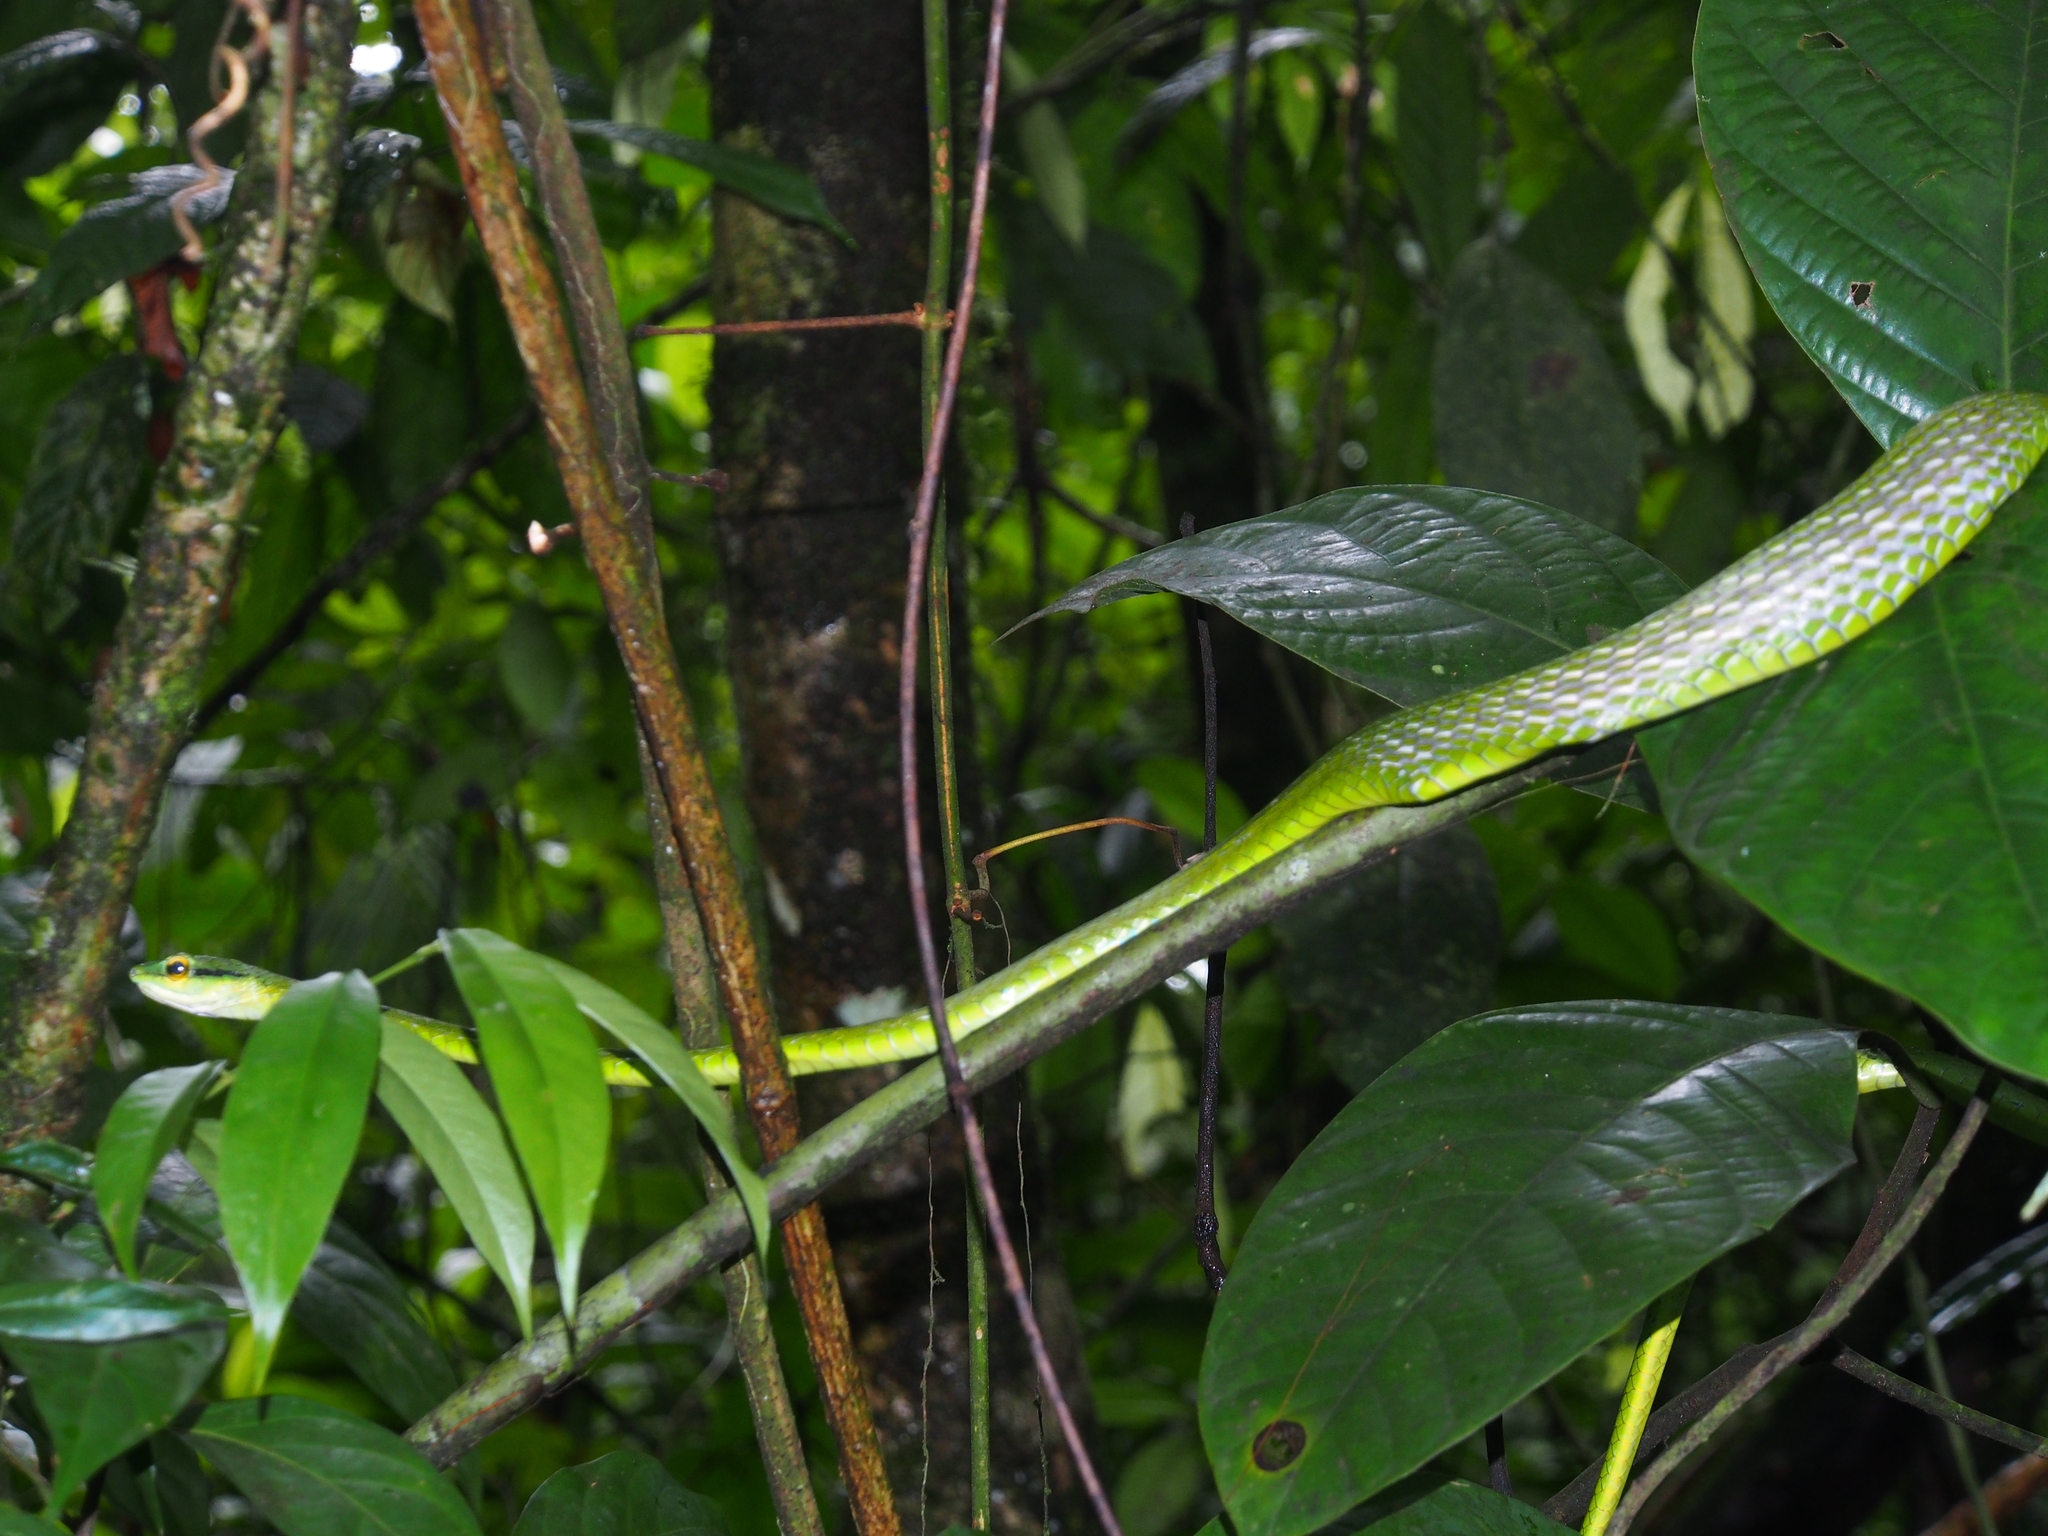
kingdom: Animalia
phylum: Chordata
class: Squamata
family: Colubridae
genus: Leptophis
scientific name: Leptophis ahaetulla
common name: Parrot snake
